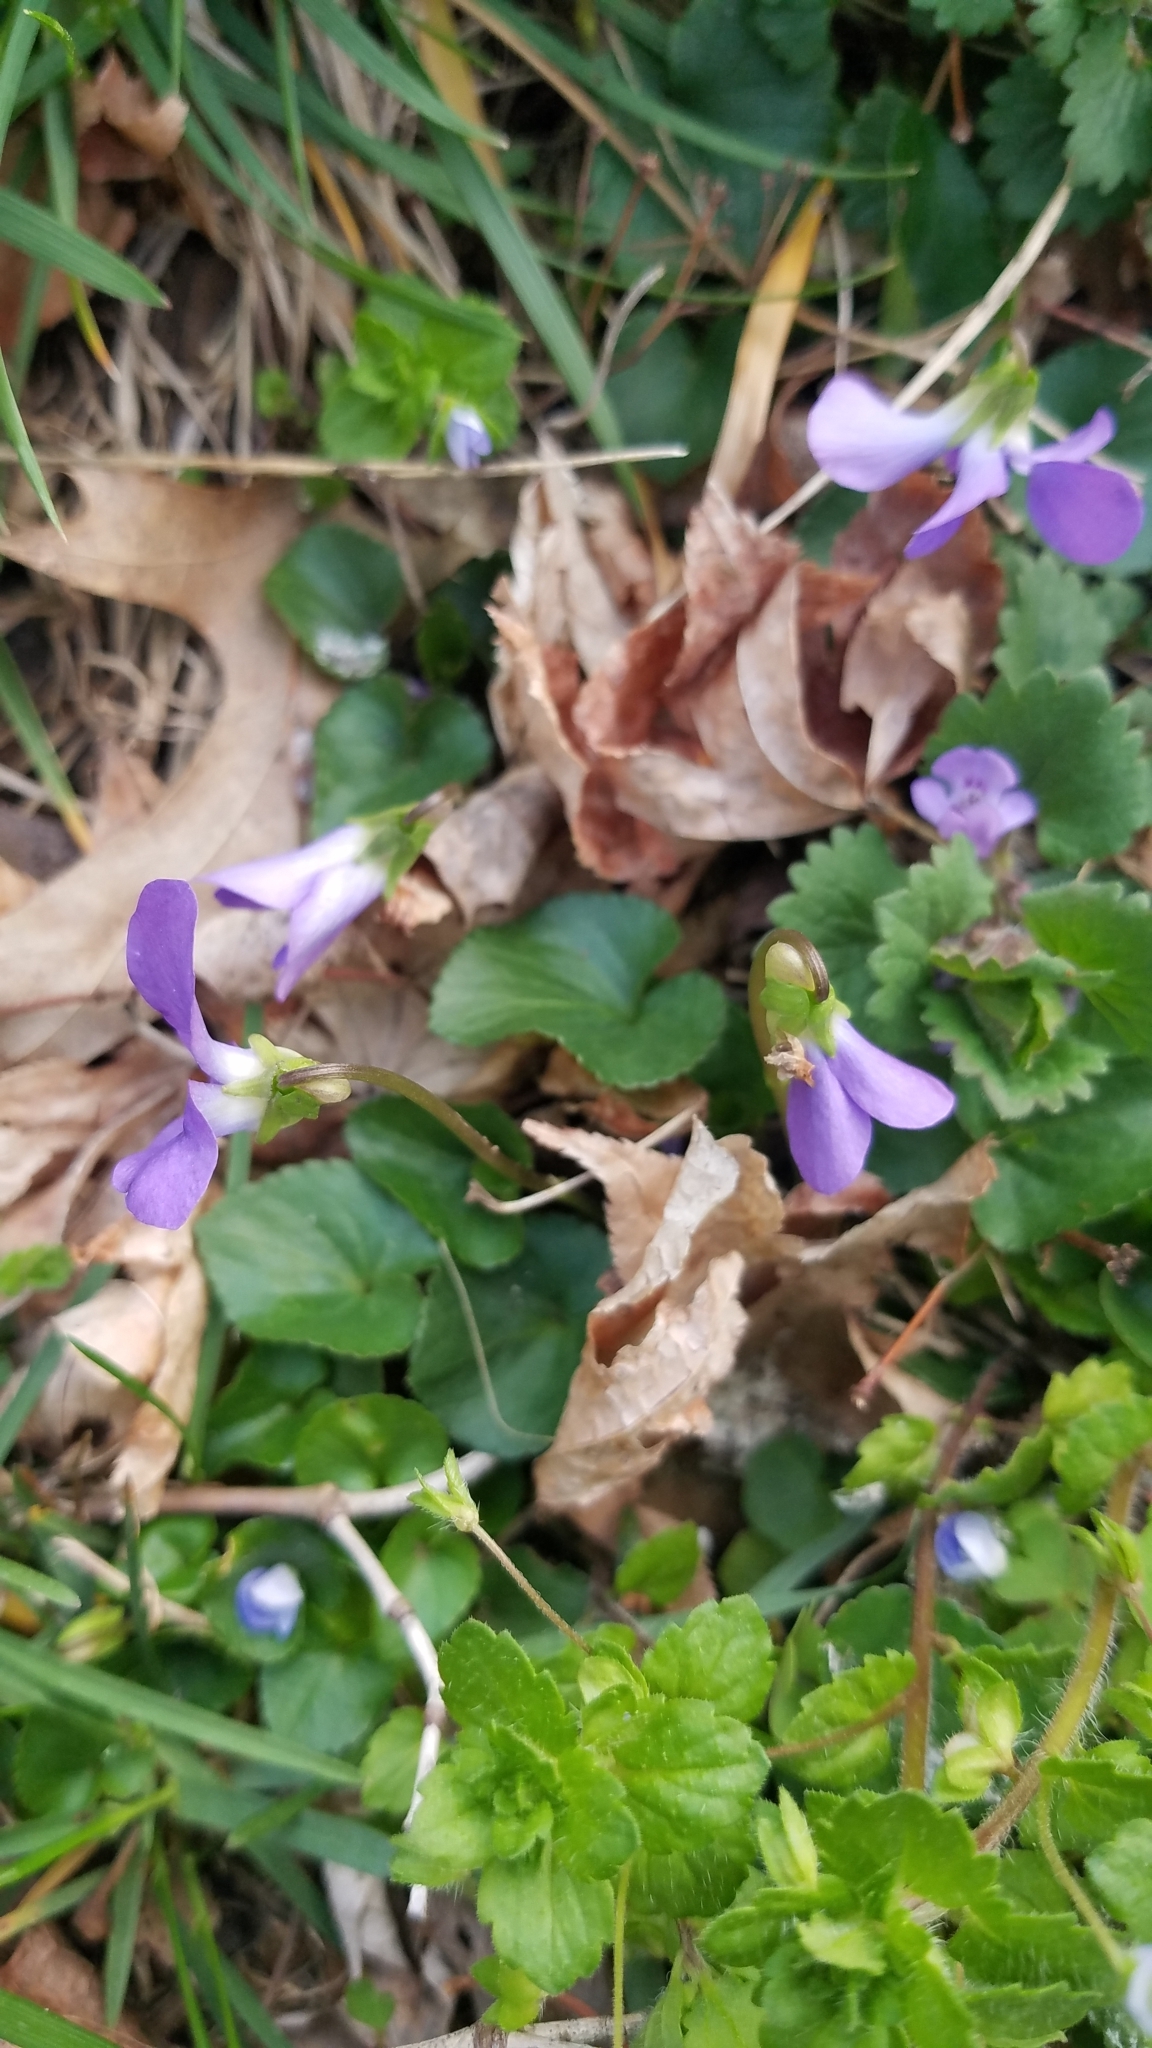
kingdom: Plantae
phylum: Tracheophyta
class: Magnoliopsida
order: Malpighiales
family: Violaceae
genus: Viola
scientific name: Viola sororia
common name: Dooryard violet
